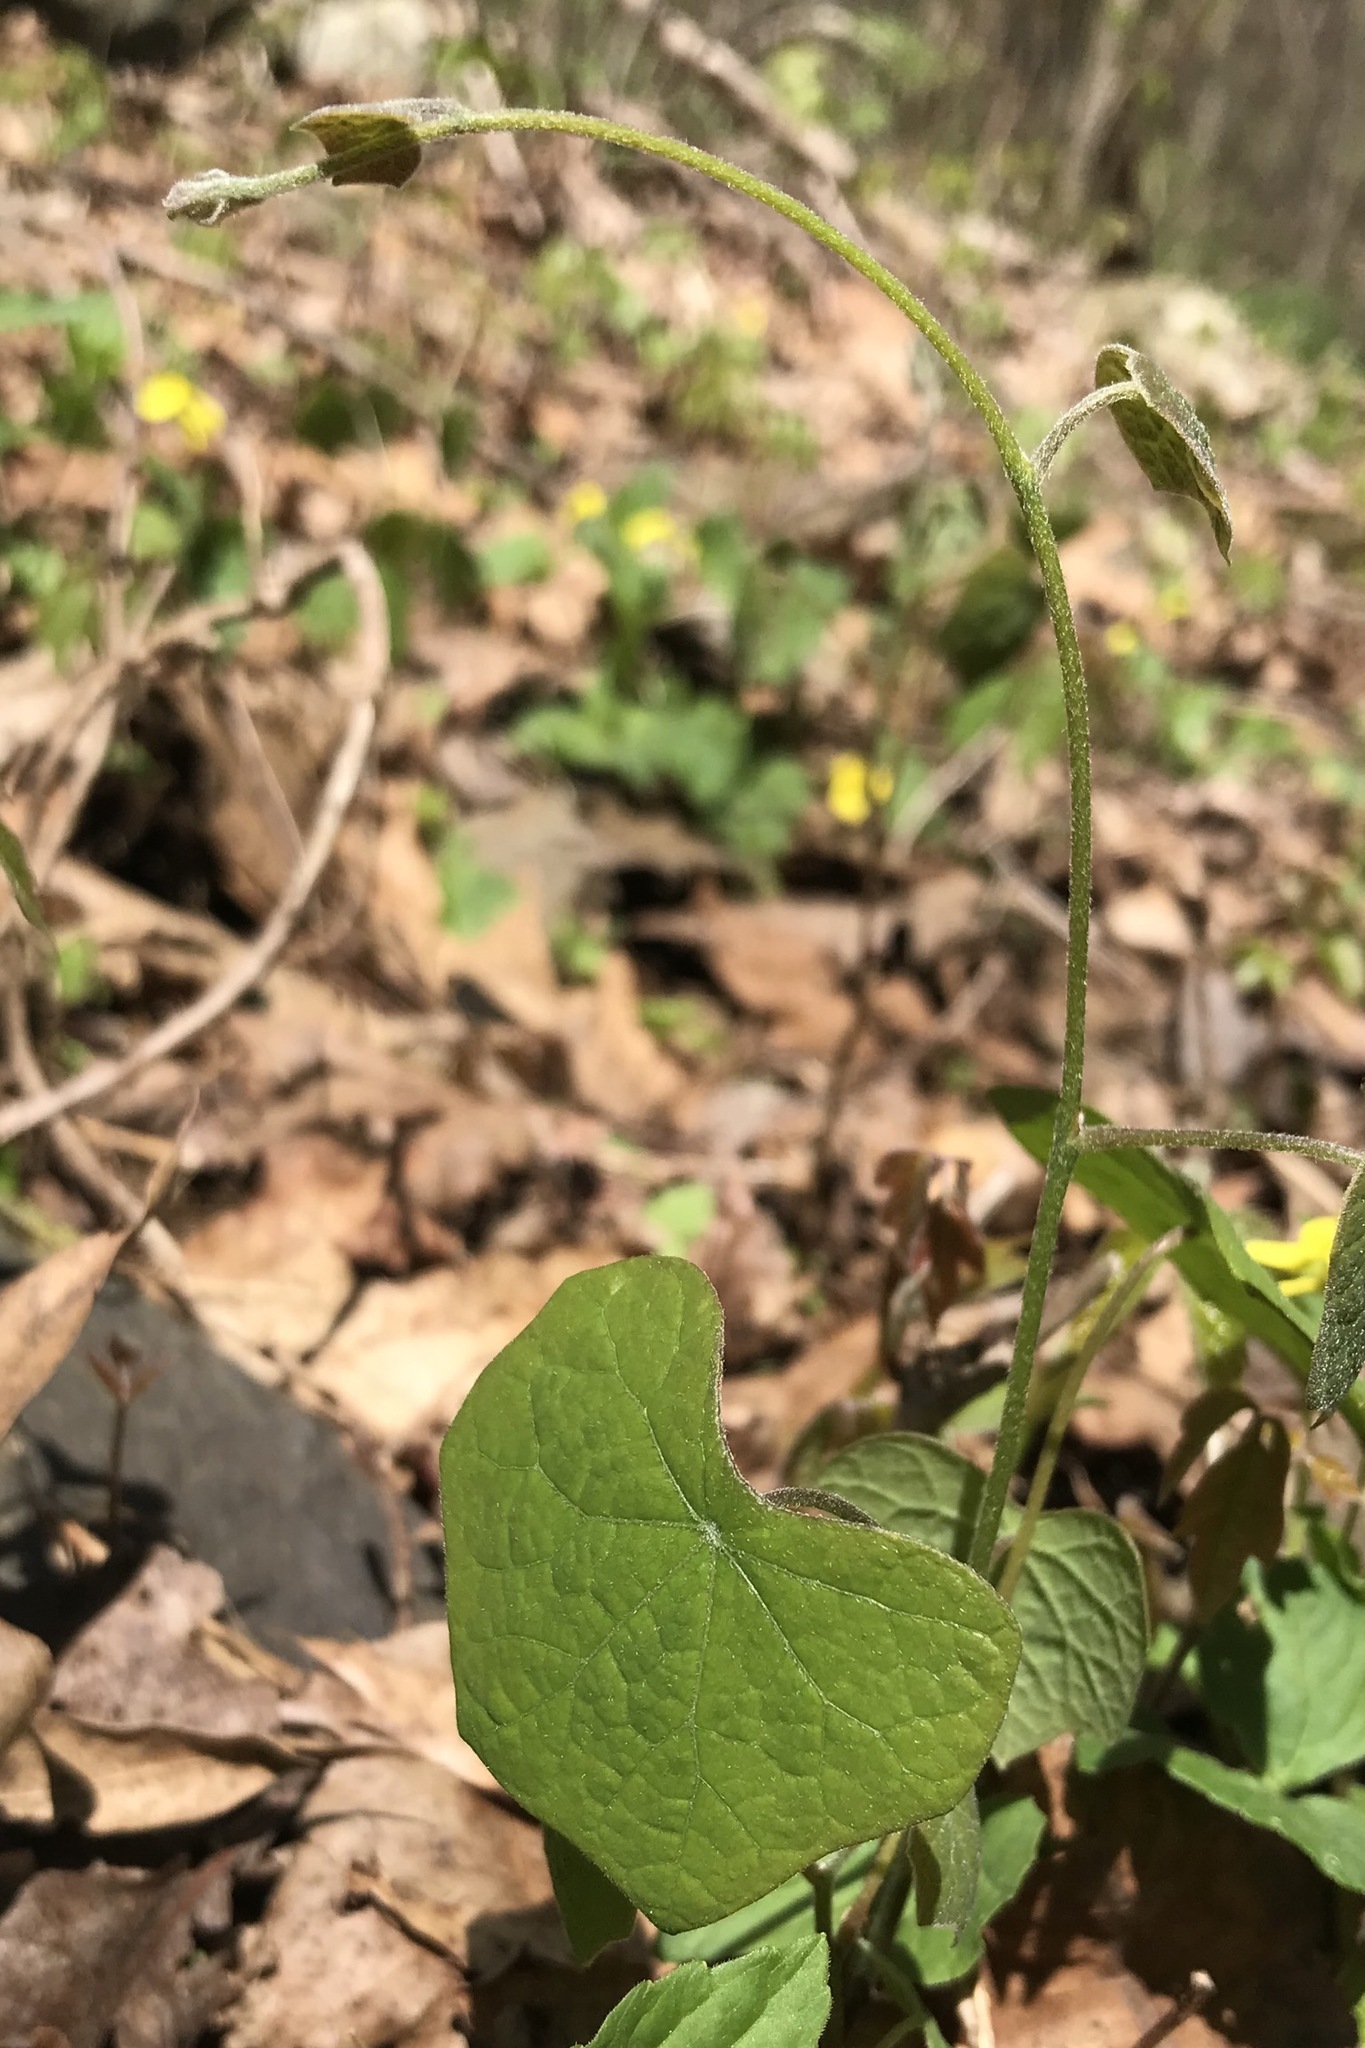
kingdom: Plantae
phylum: Tracheophyta
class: Magnoliopsida
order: Ranunculales
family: Menispermaceae
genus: Menispermum
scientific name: Menispermum canadense
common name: Moonseed
